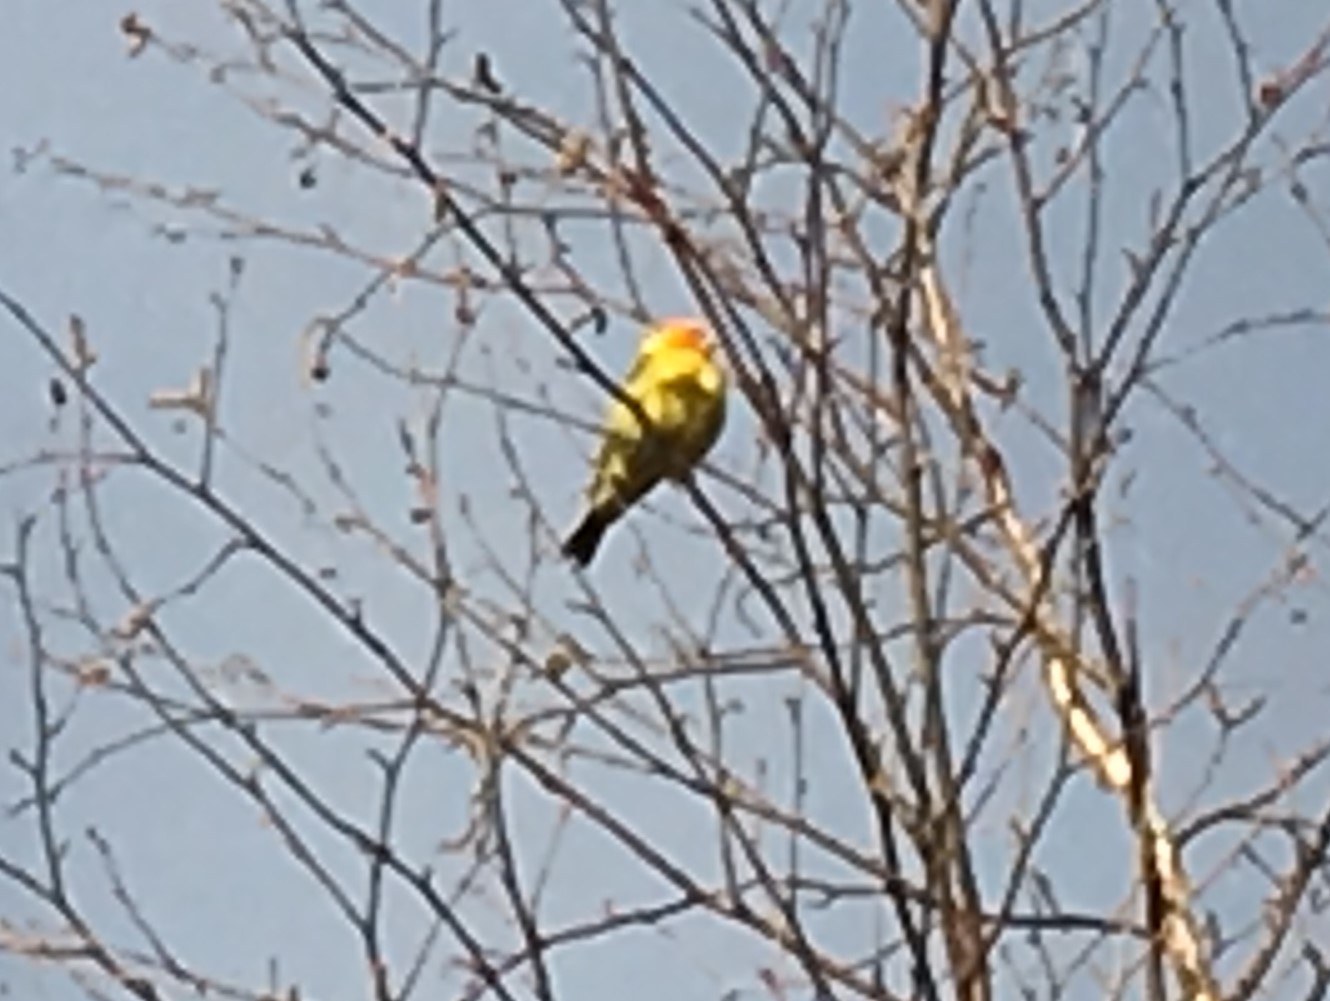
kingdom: Animalia
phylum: Chordata
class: Aves
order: Passeriformes
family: Cardinalidae
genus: Piranga
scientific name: Piranga ludoviciana
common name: Western tanager
